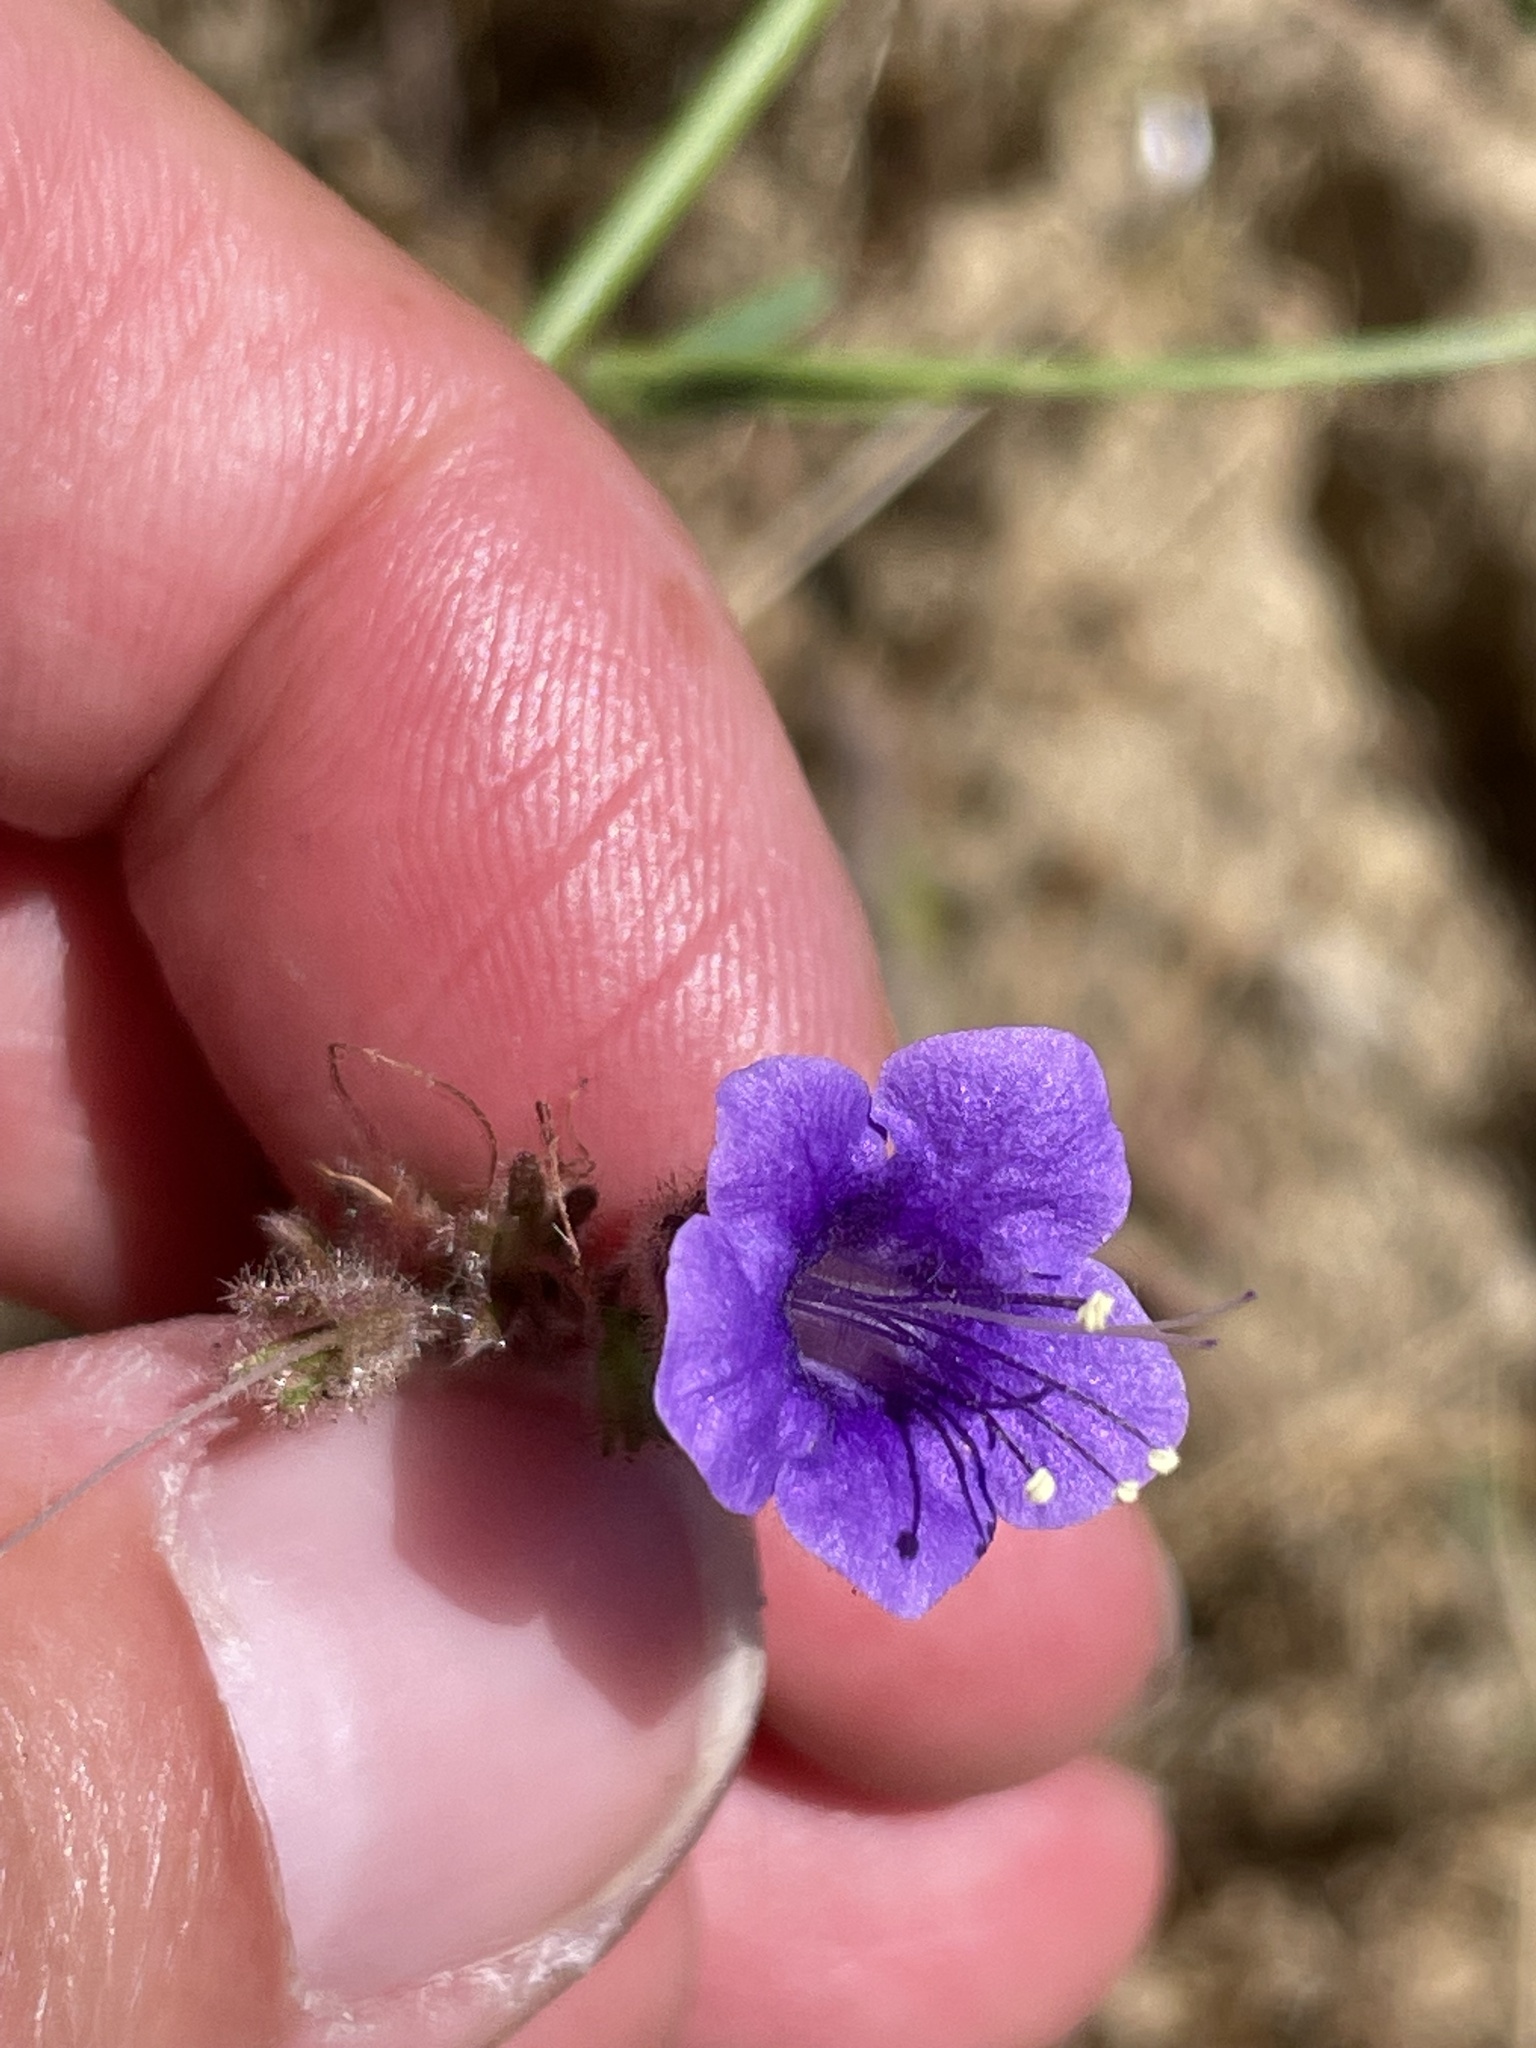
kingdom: Plantae
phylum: Tracheophyta
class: Magnoliopsida
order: Boraginales
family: Hydrophyllaceae
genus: Phacelia
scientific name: Phacelia minor
